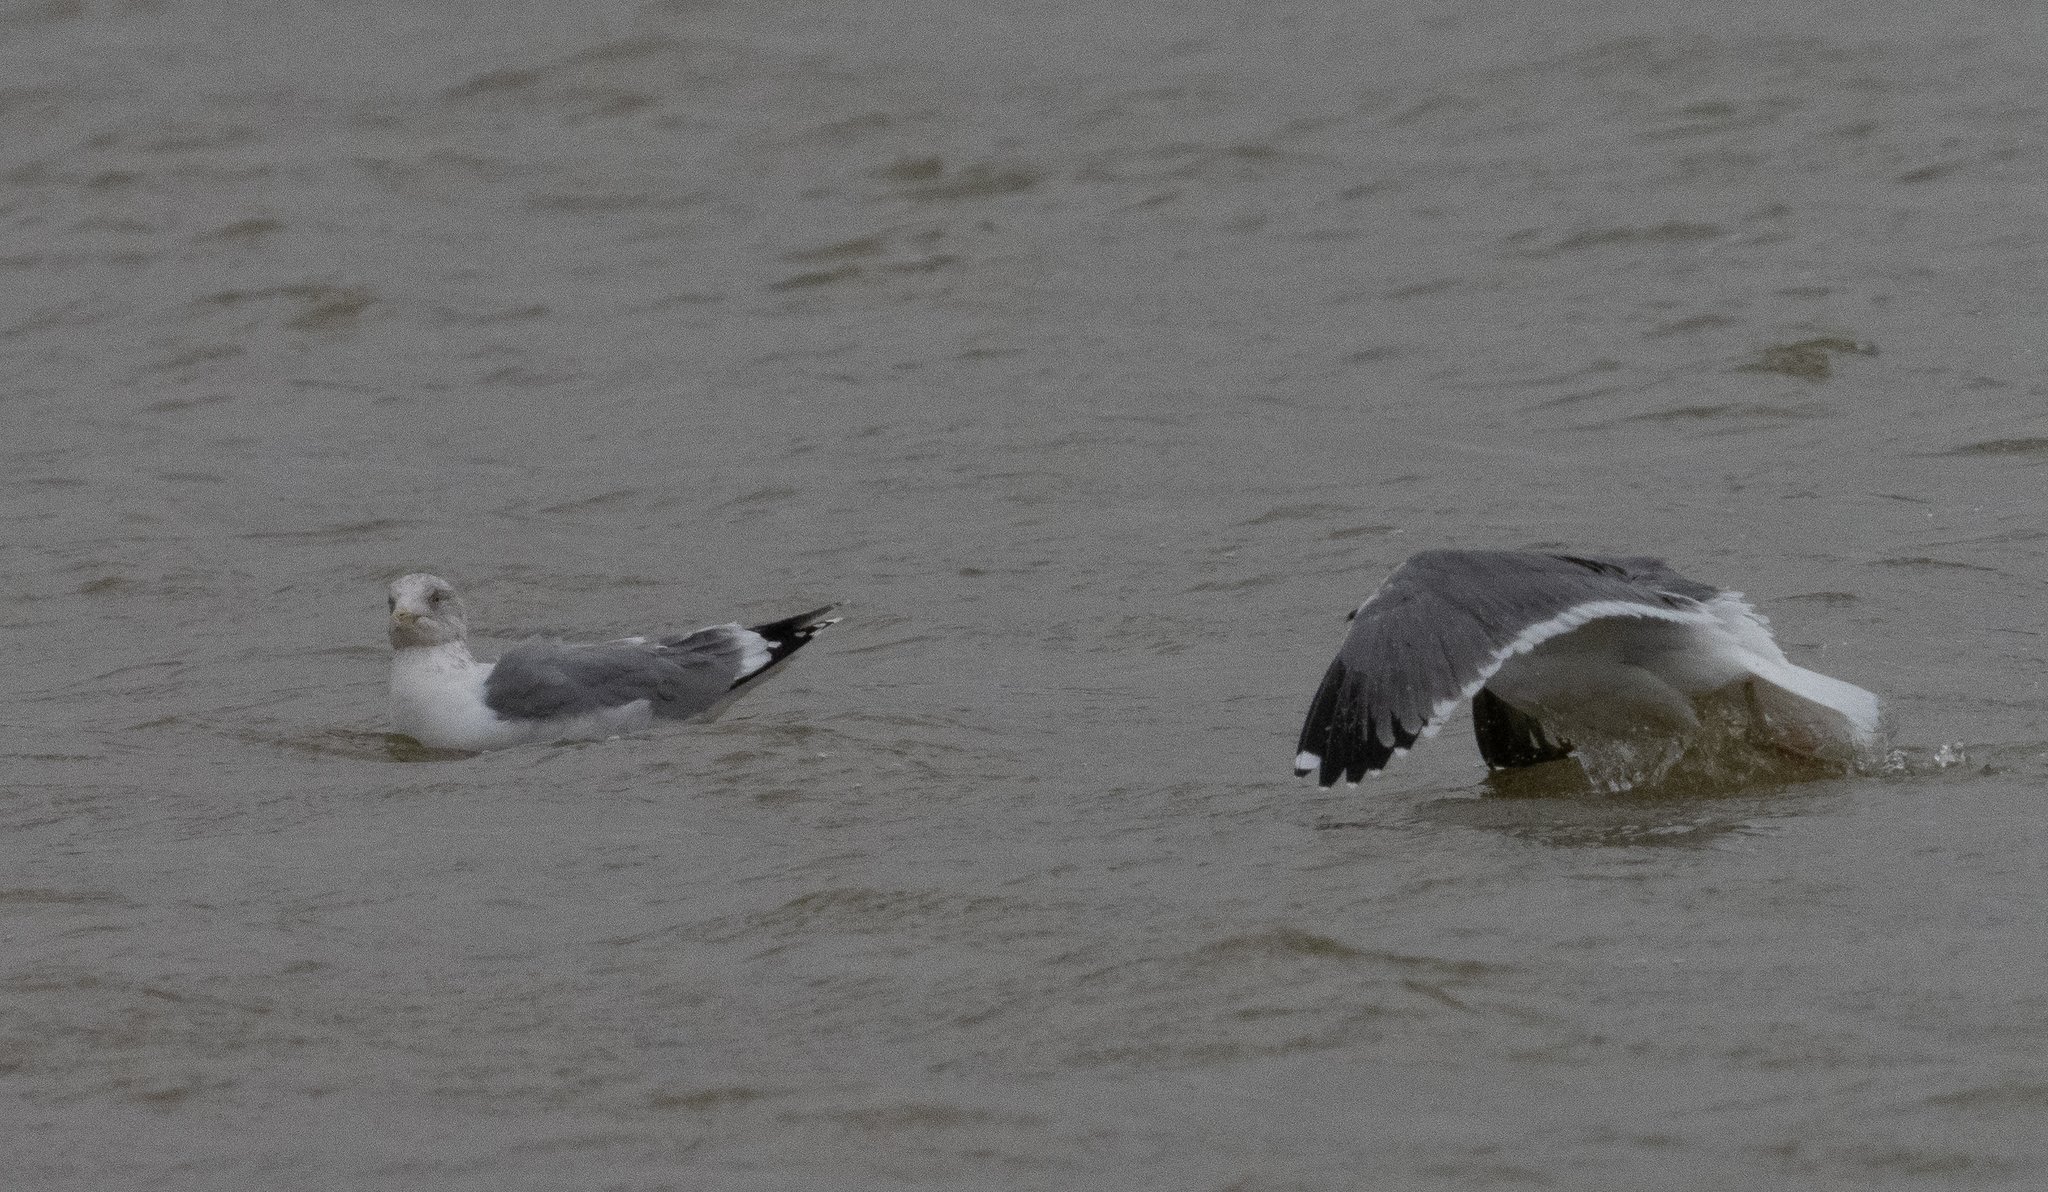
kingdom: Animalia
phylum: Chordata
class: Aves
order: Charadriiformes
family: Laridae
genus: Larus
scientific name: Larus fuscus
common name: Lesser black-backed gull
